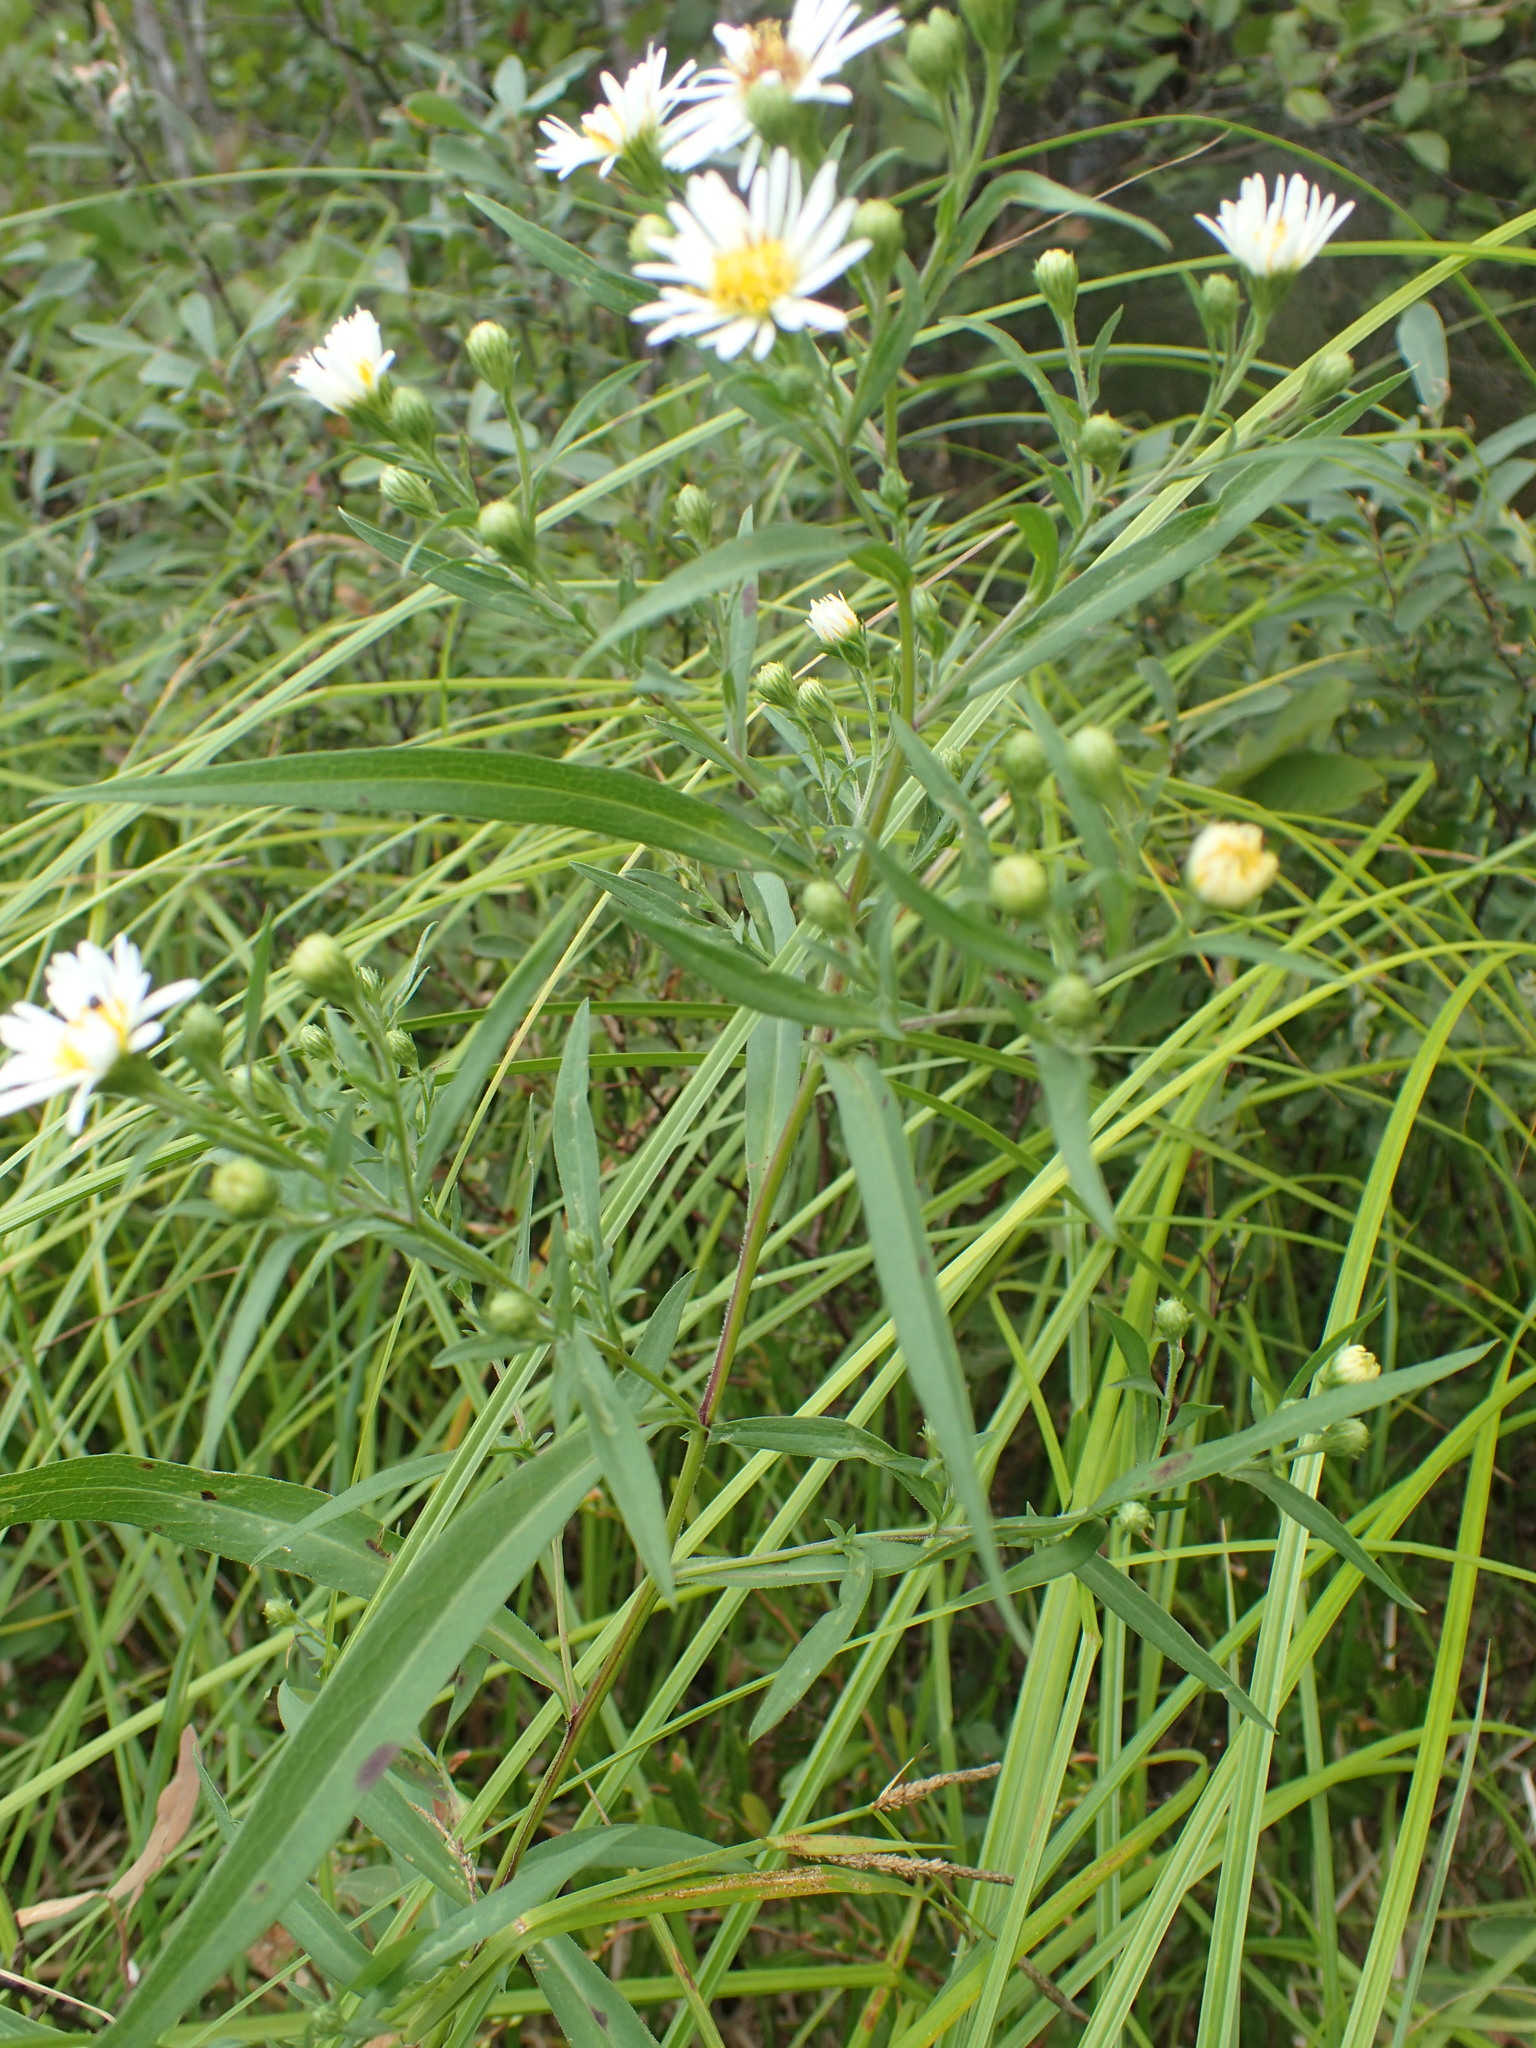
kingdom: Plantae
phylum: Tracheophyta
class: Magnoliopsida
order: Asterales
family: Asteraceae
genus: Symphyotrichum
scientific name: Symphyotrichum lanceolatum
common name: Panicled aster
